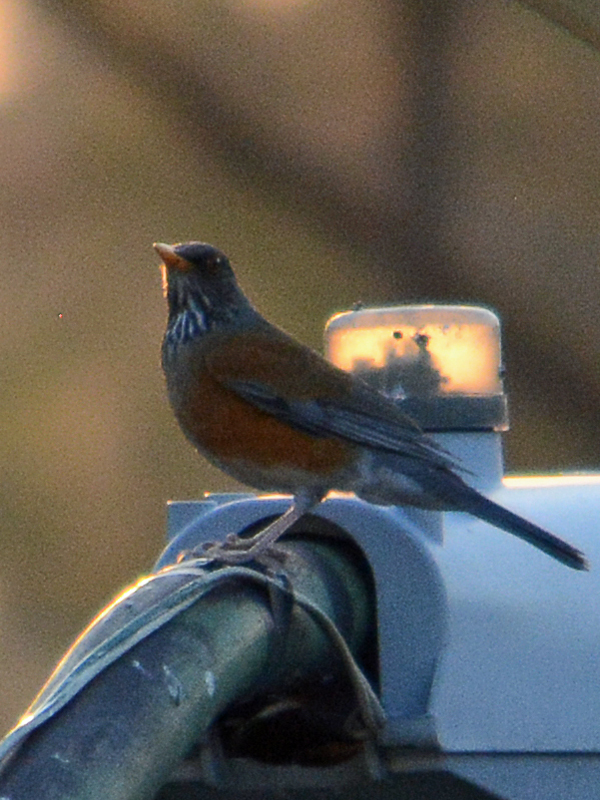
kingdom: Animalia
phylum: Chordata
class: Aves
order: Passeriformes
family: Turdidae
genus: Turdus
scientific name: Turdus rufopalliatus
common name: Rufous-backed robin
